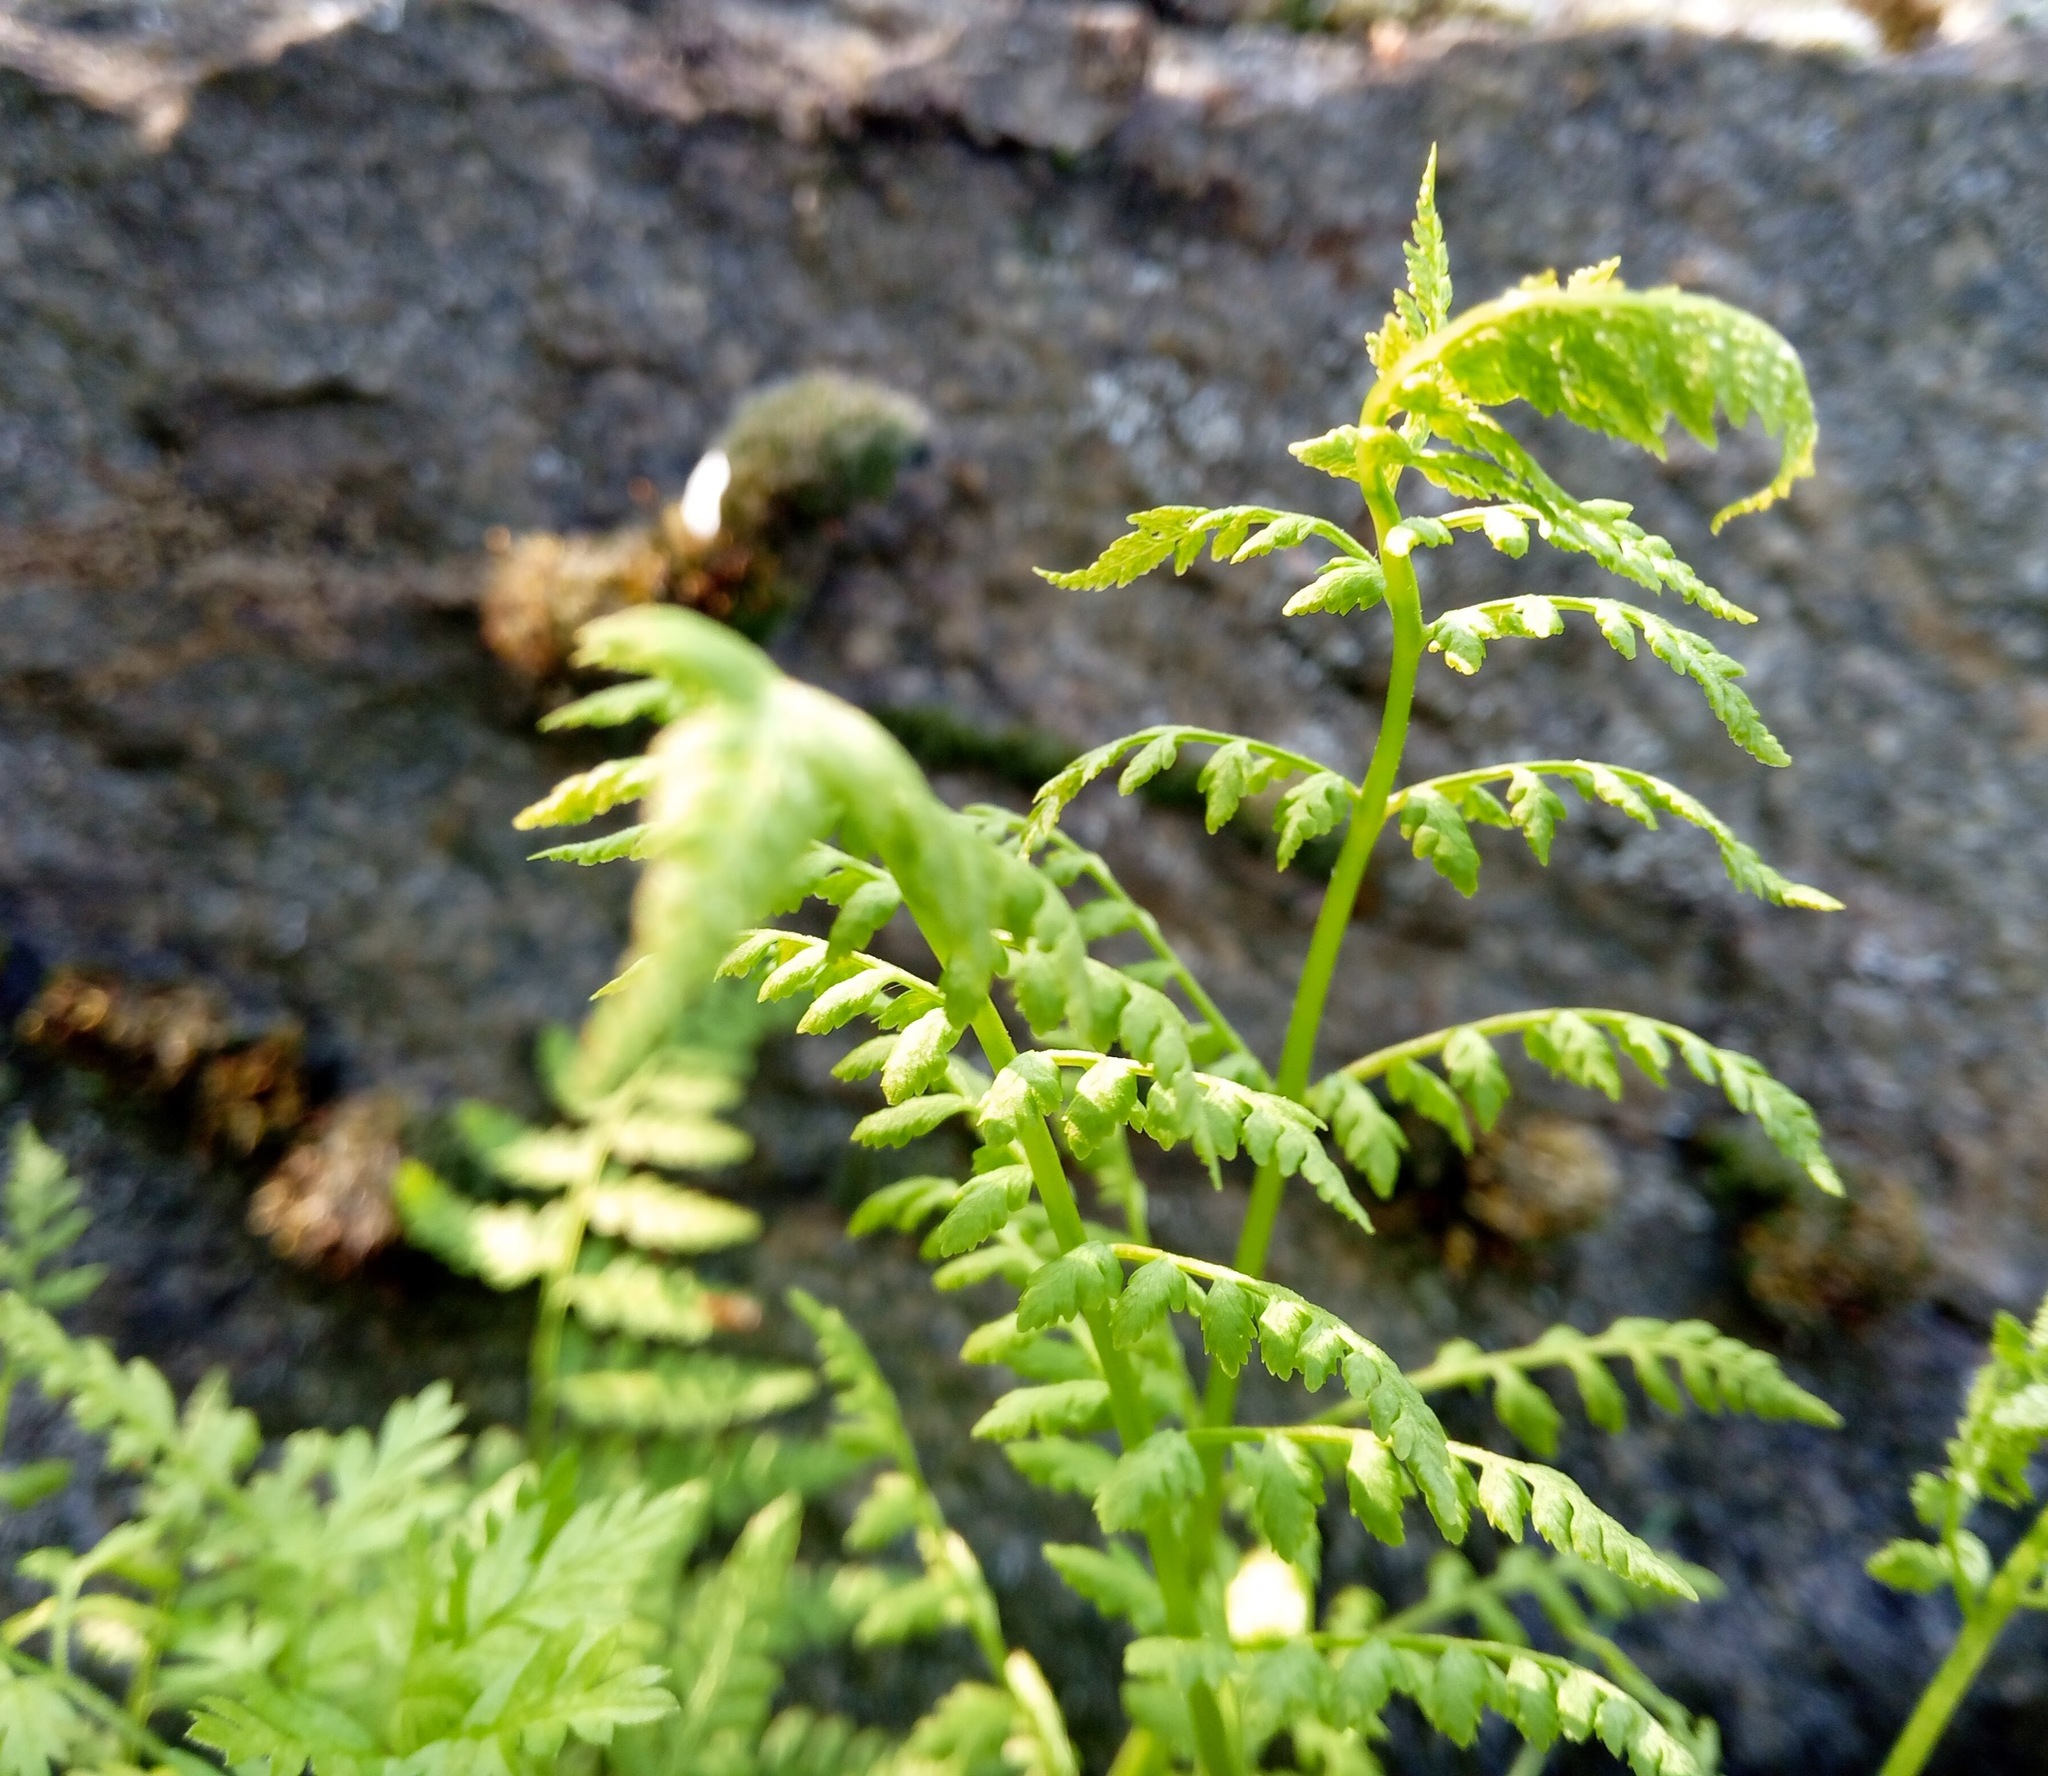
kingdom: Plantae
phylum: Tracheophyta
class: Polypodiopsida
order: Polypodiales
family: Cystopteridaceae
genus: Cystopteris
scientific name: Cystopteris fragilis
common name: Brittle bladder fern
